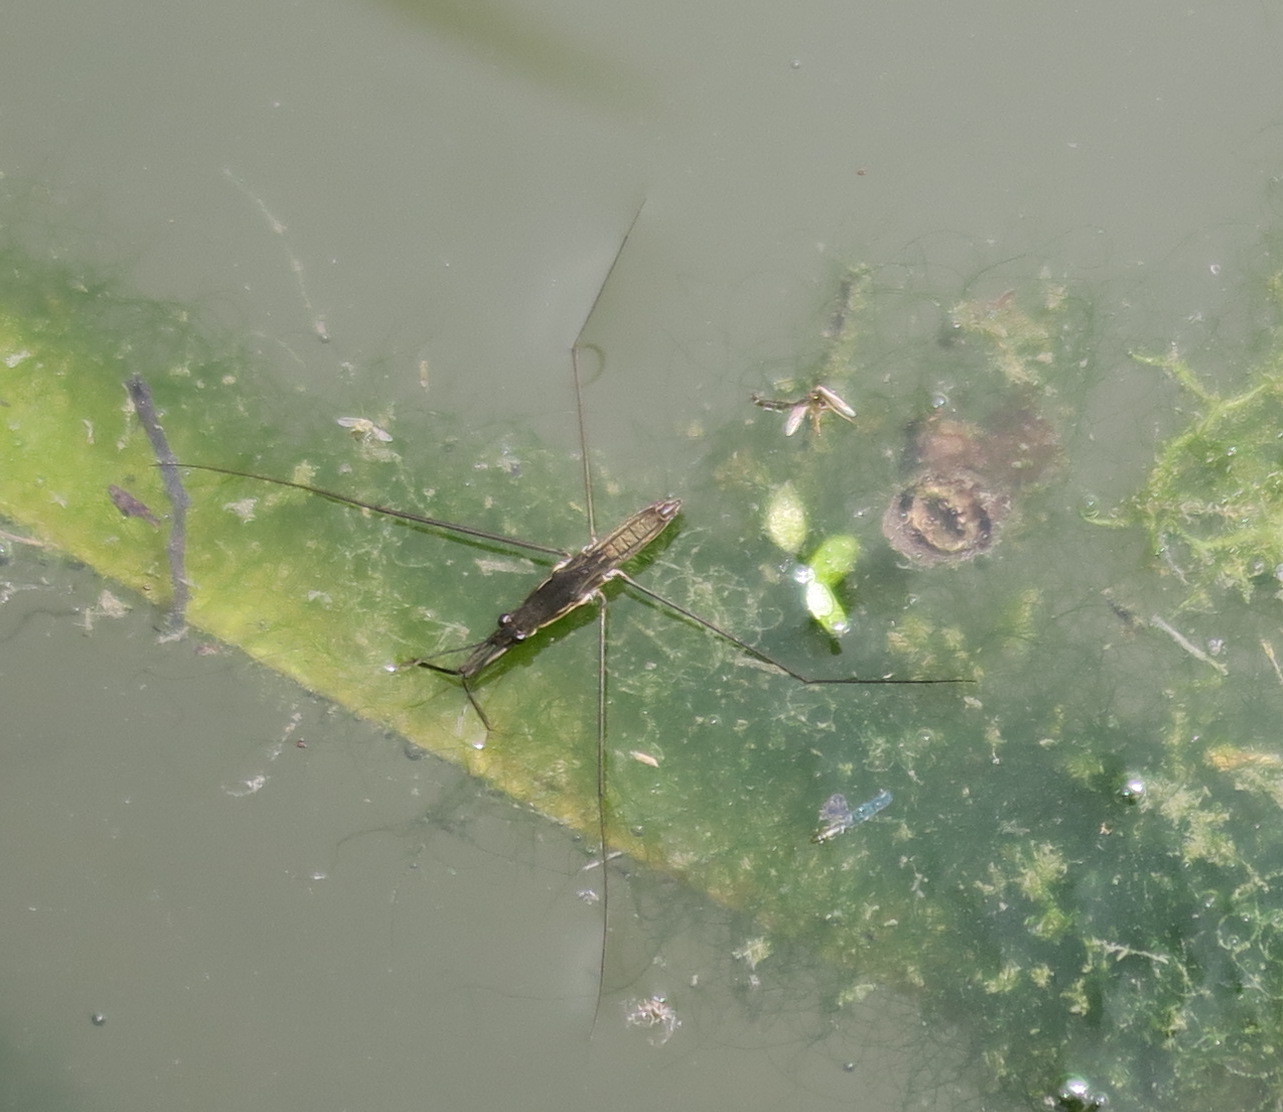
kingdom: Animalia
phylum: Arthropoda
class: Insecta
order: Hemiptera
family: Gerridae
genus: Aquarius
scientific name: Aquarius paludum
